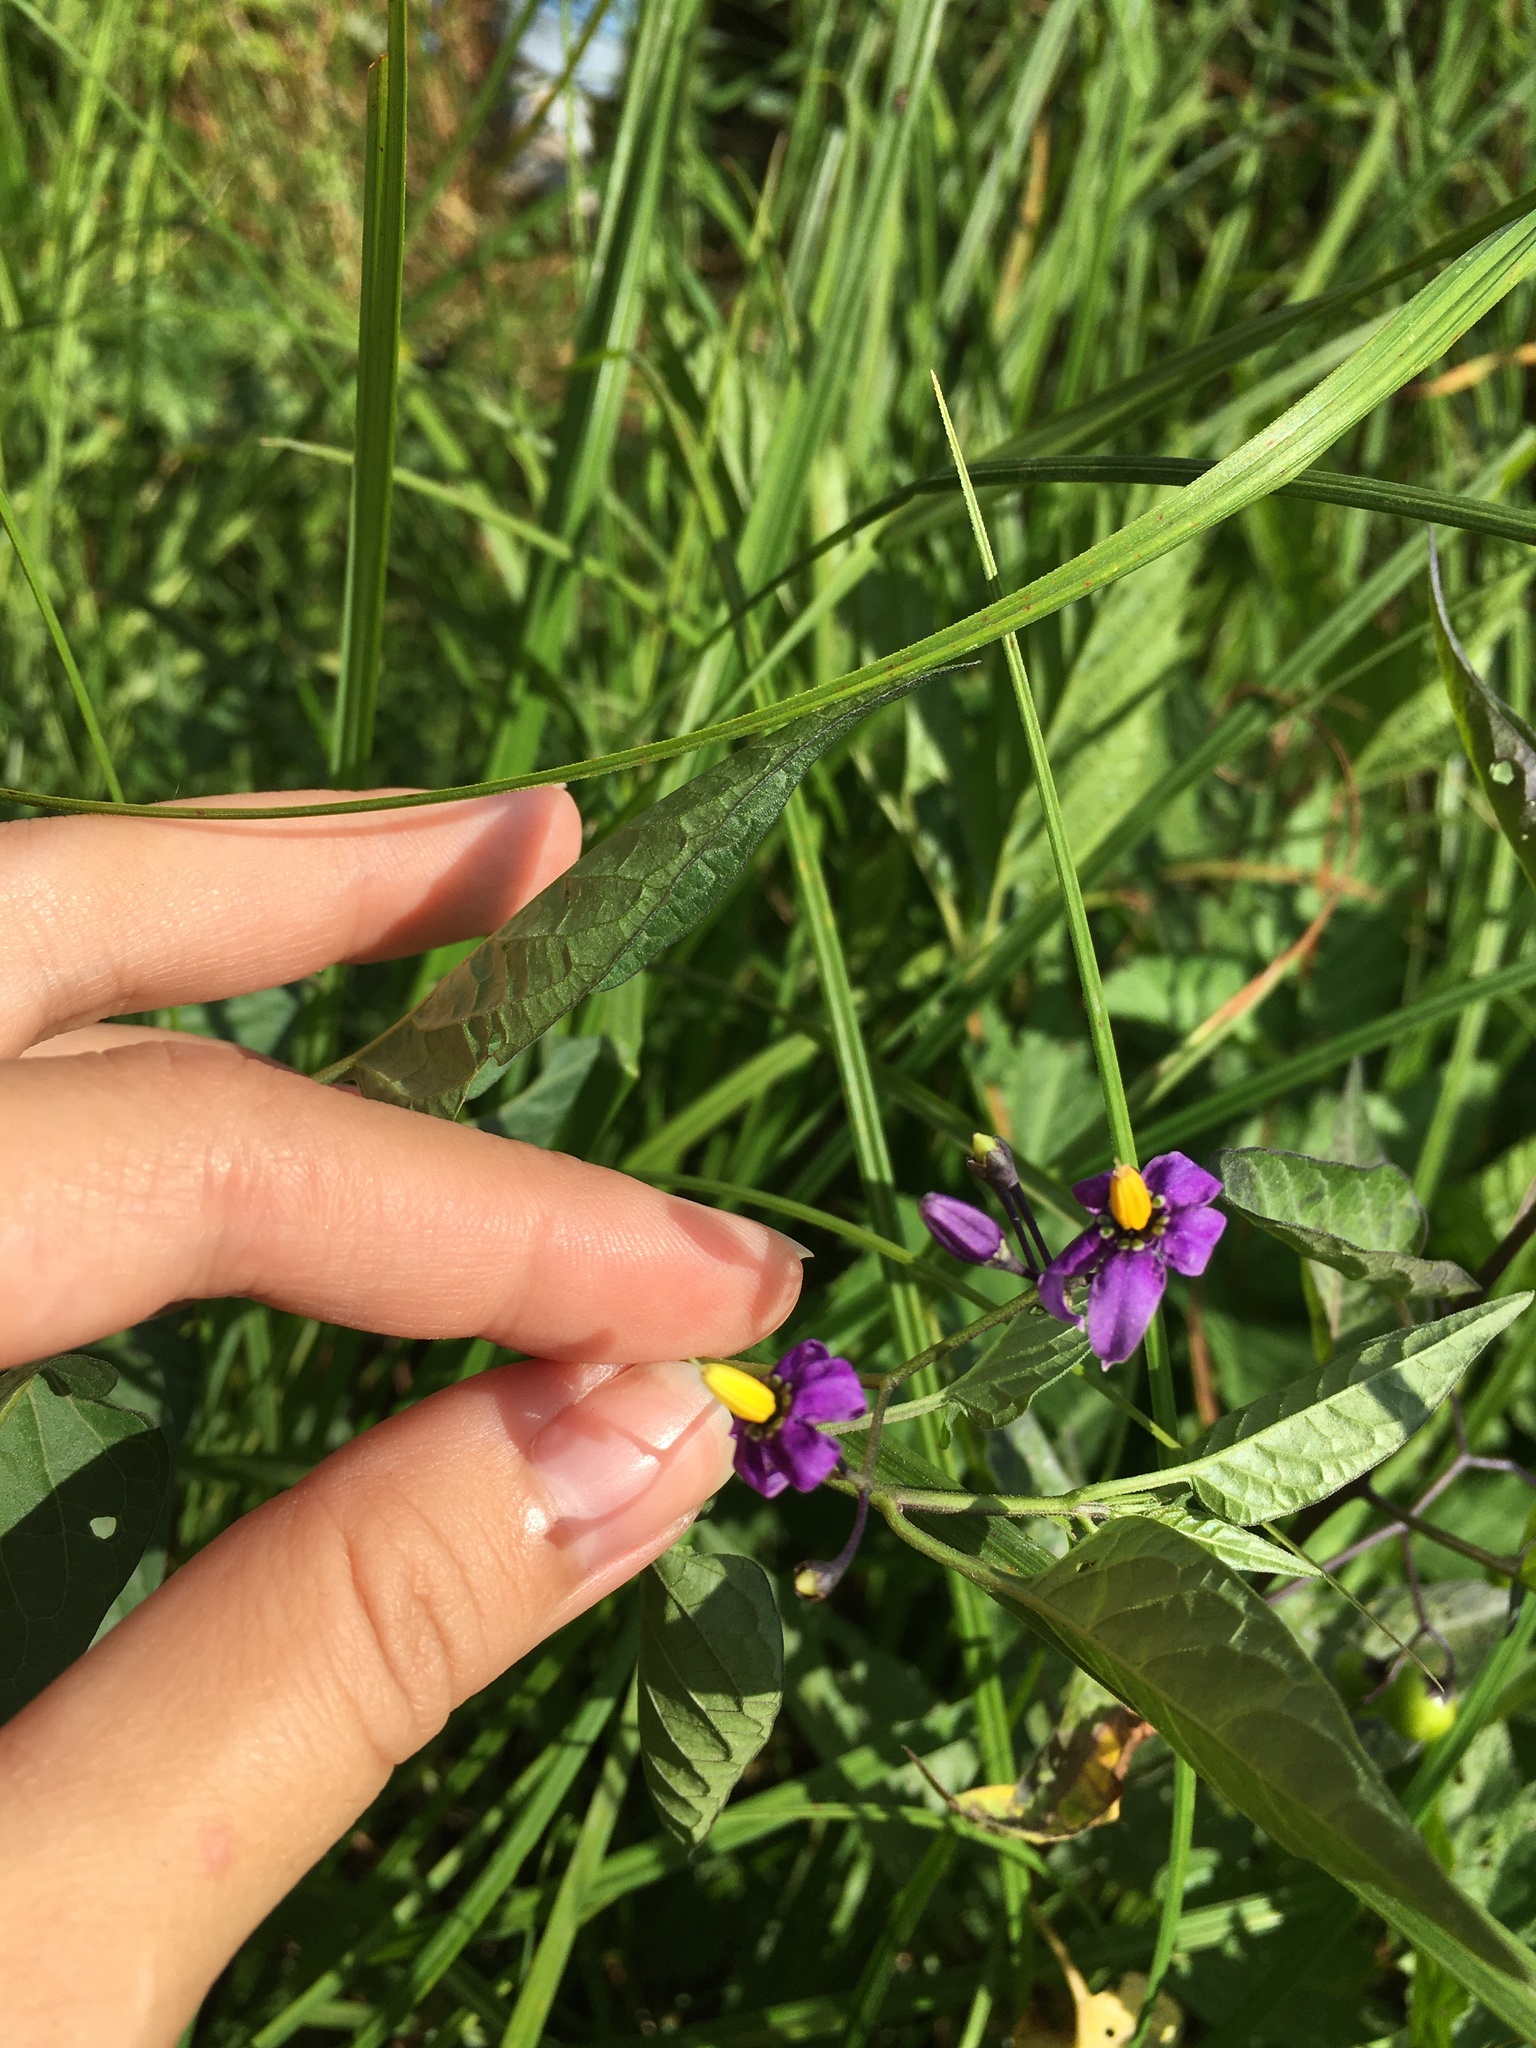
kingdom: Plantae
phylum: Tracheophyta
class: Magnoliopsida
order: Solanales
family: Solanaceae
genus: Solanum
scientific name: Solanum dulcamara
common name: Climbing nightshade
